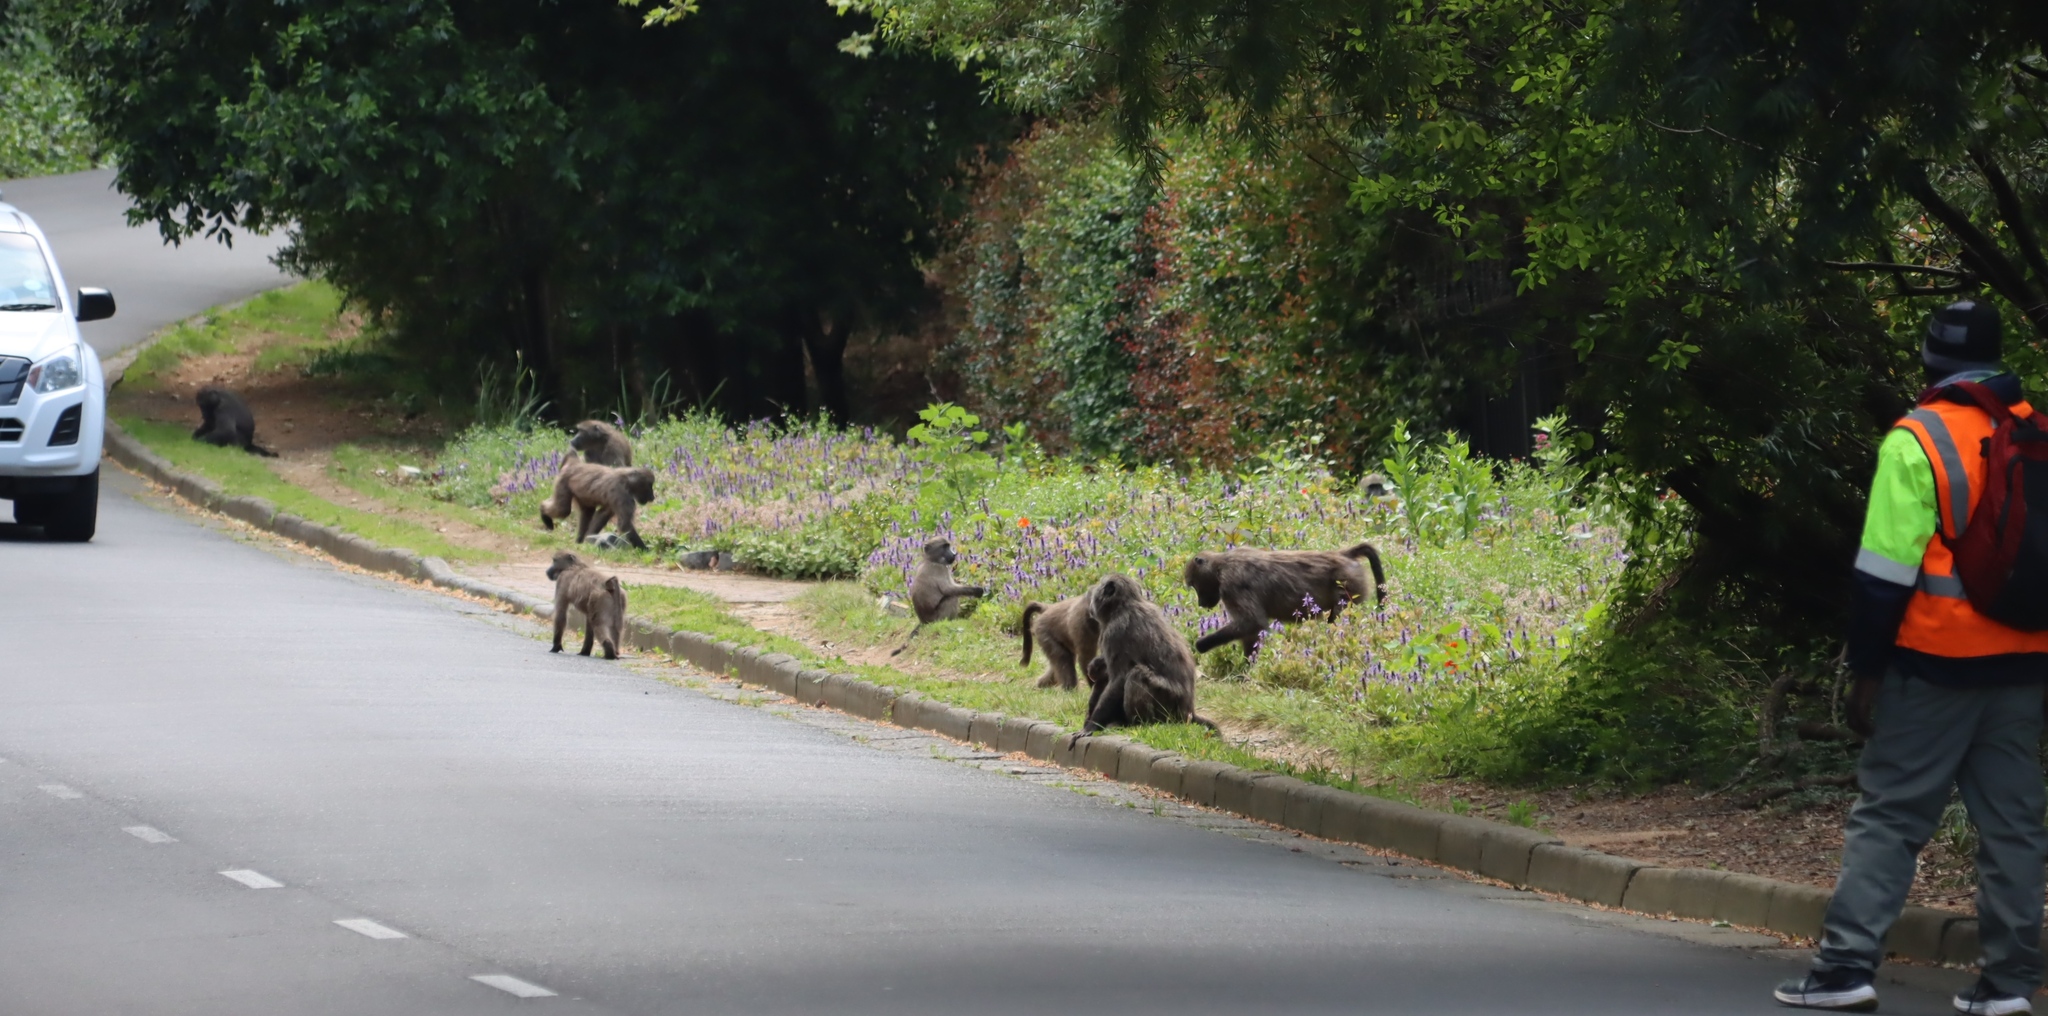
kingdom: Animalia
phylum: Chordata
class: Mammalia
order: Primates
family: Cercopithecidae
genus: Papio
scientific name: Papio ursinus
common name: Chacma baboon
